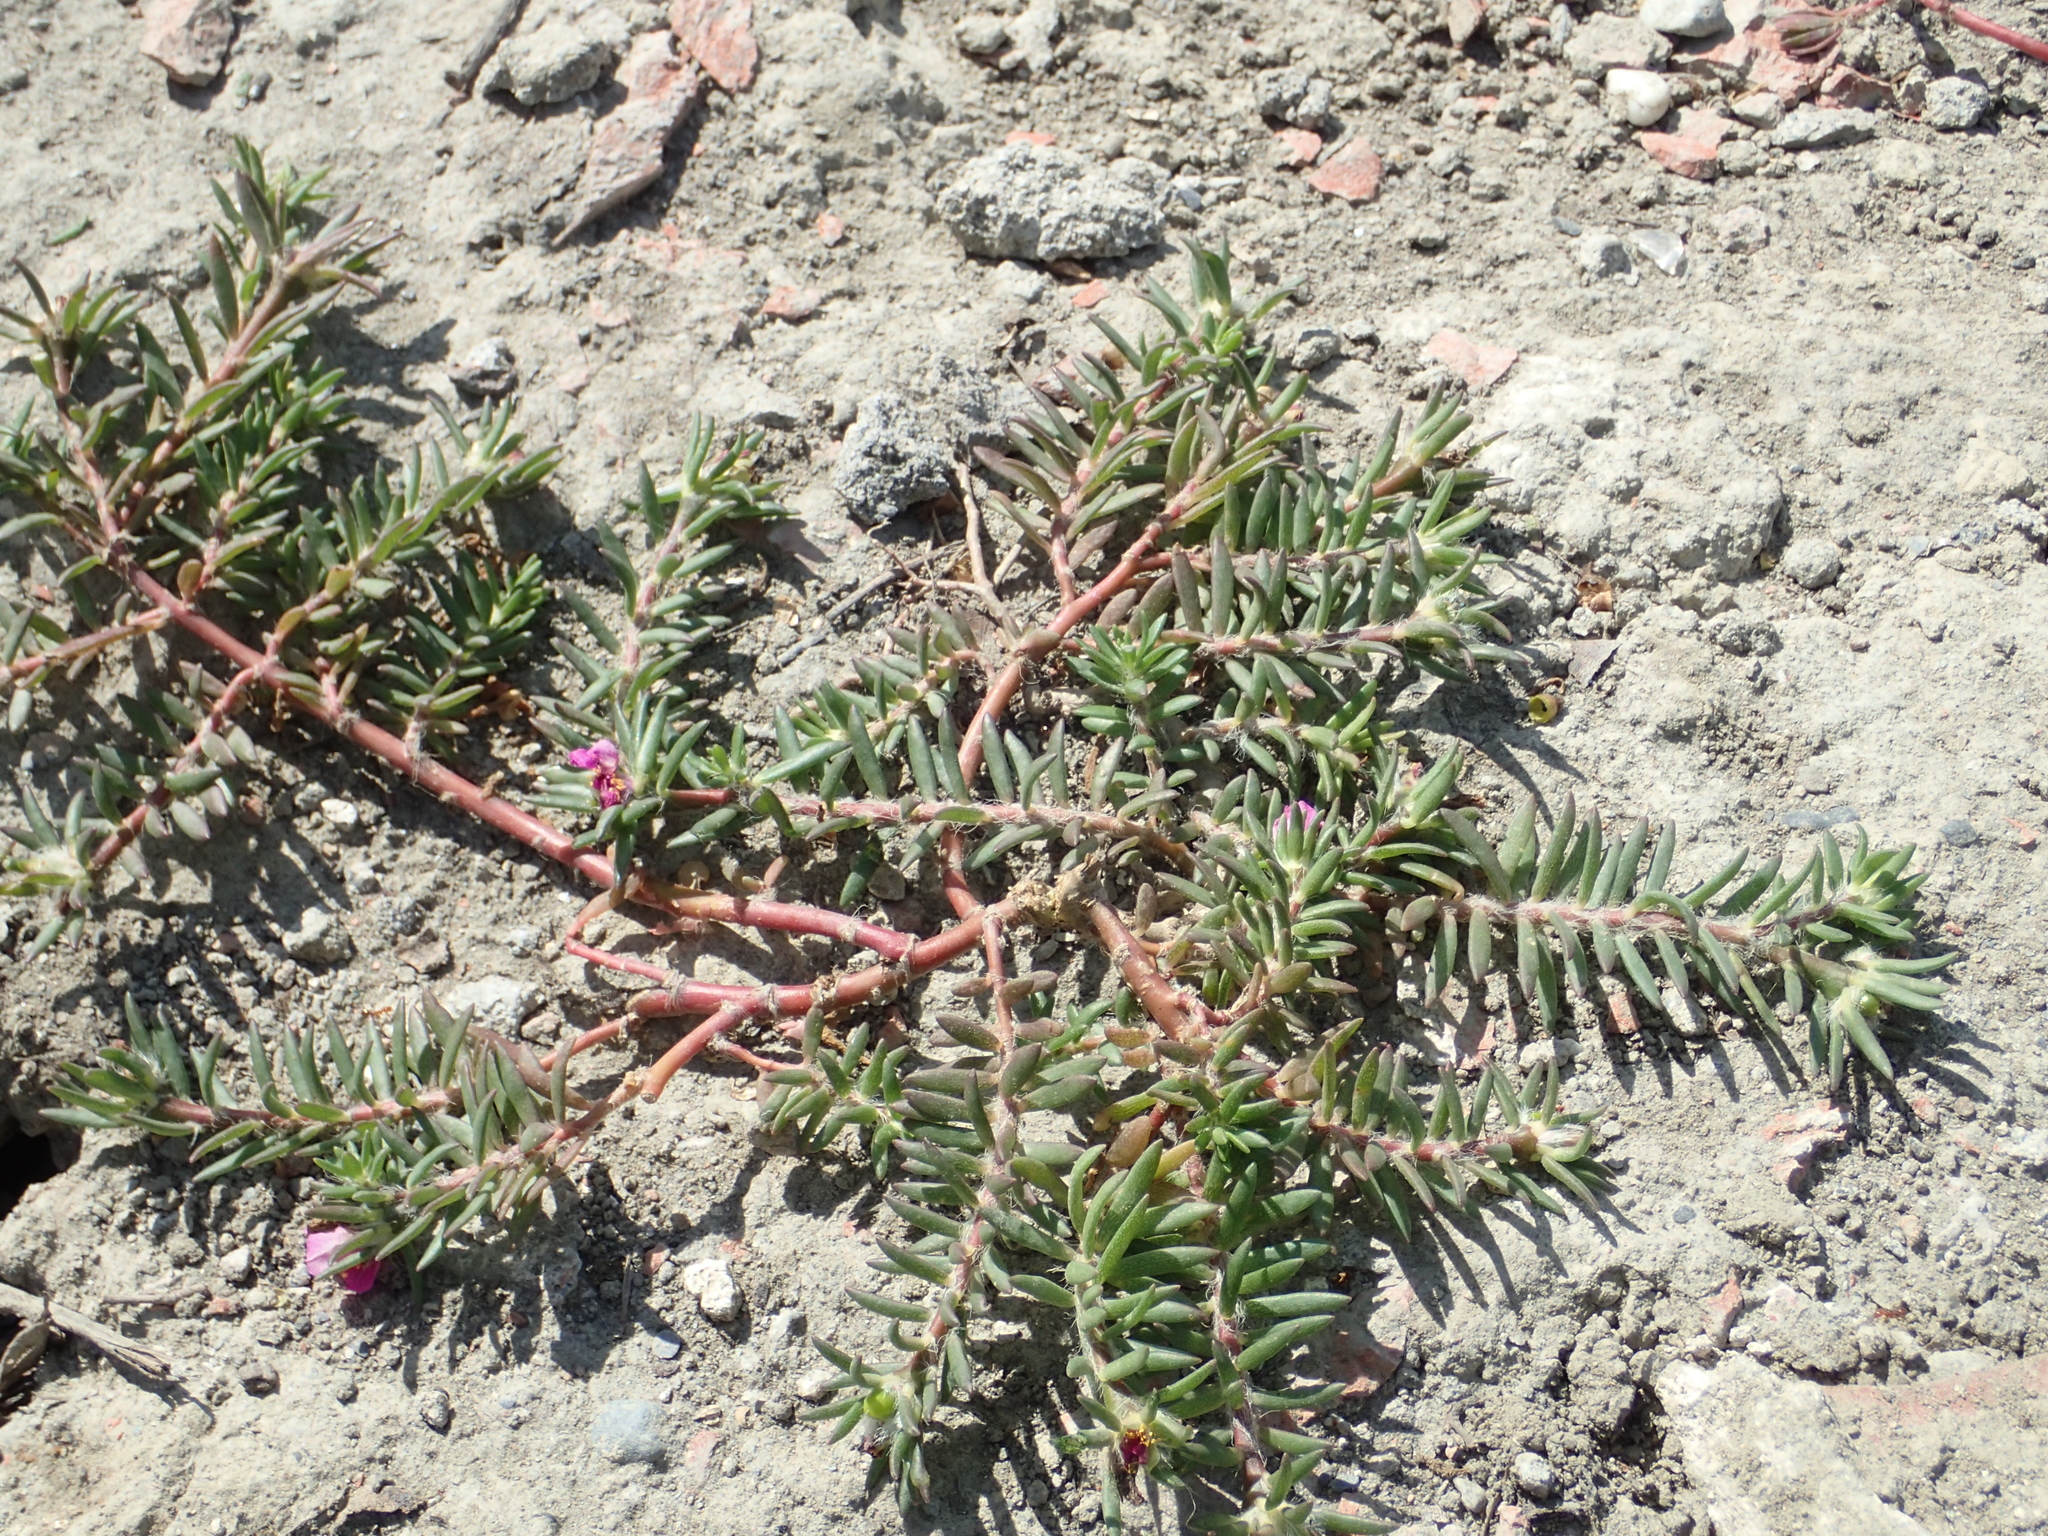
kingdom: Plantae
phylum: Tracheophyta
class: Magnoliopsida
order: Caryophyllales
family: Portulacaceae
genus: Portulaca
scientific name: Portulaca pilosa
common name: Kiss me quick
